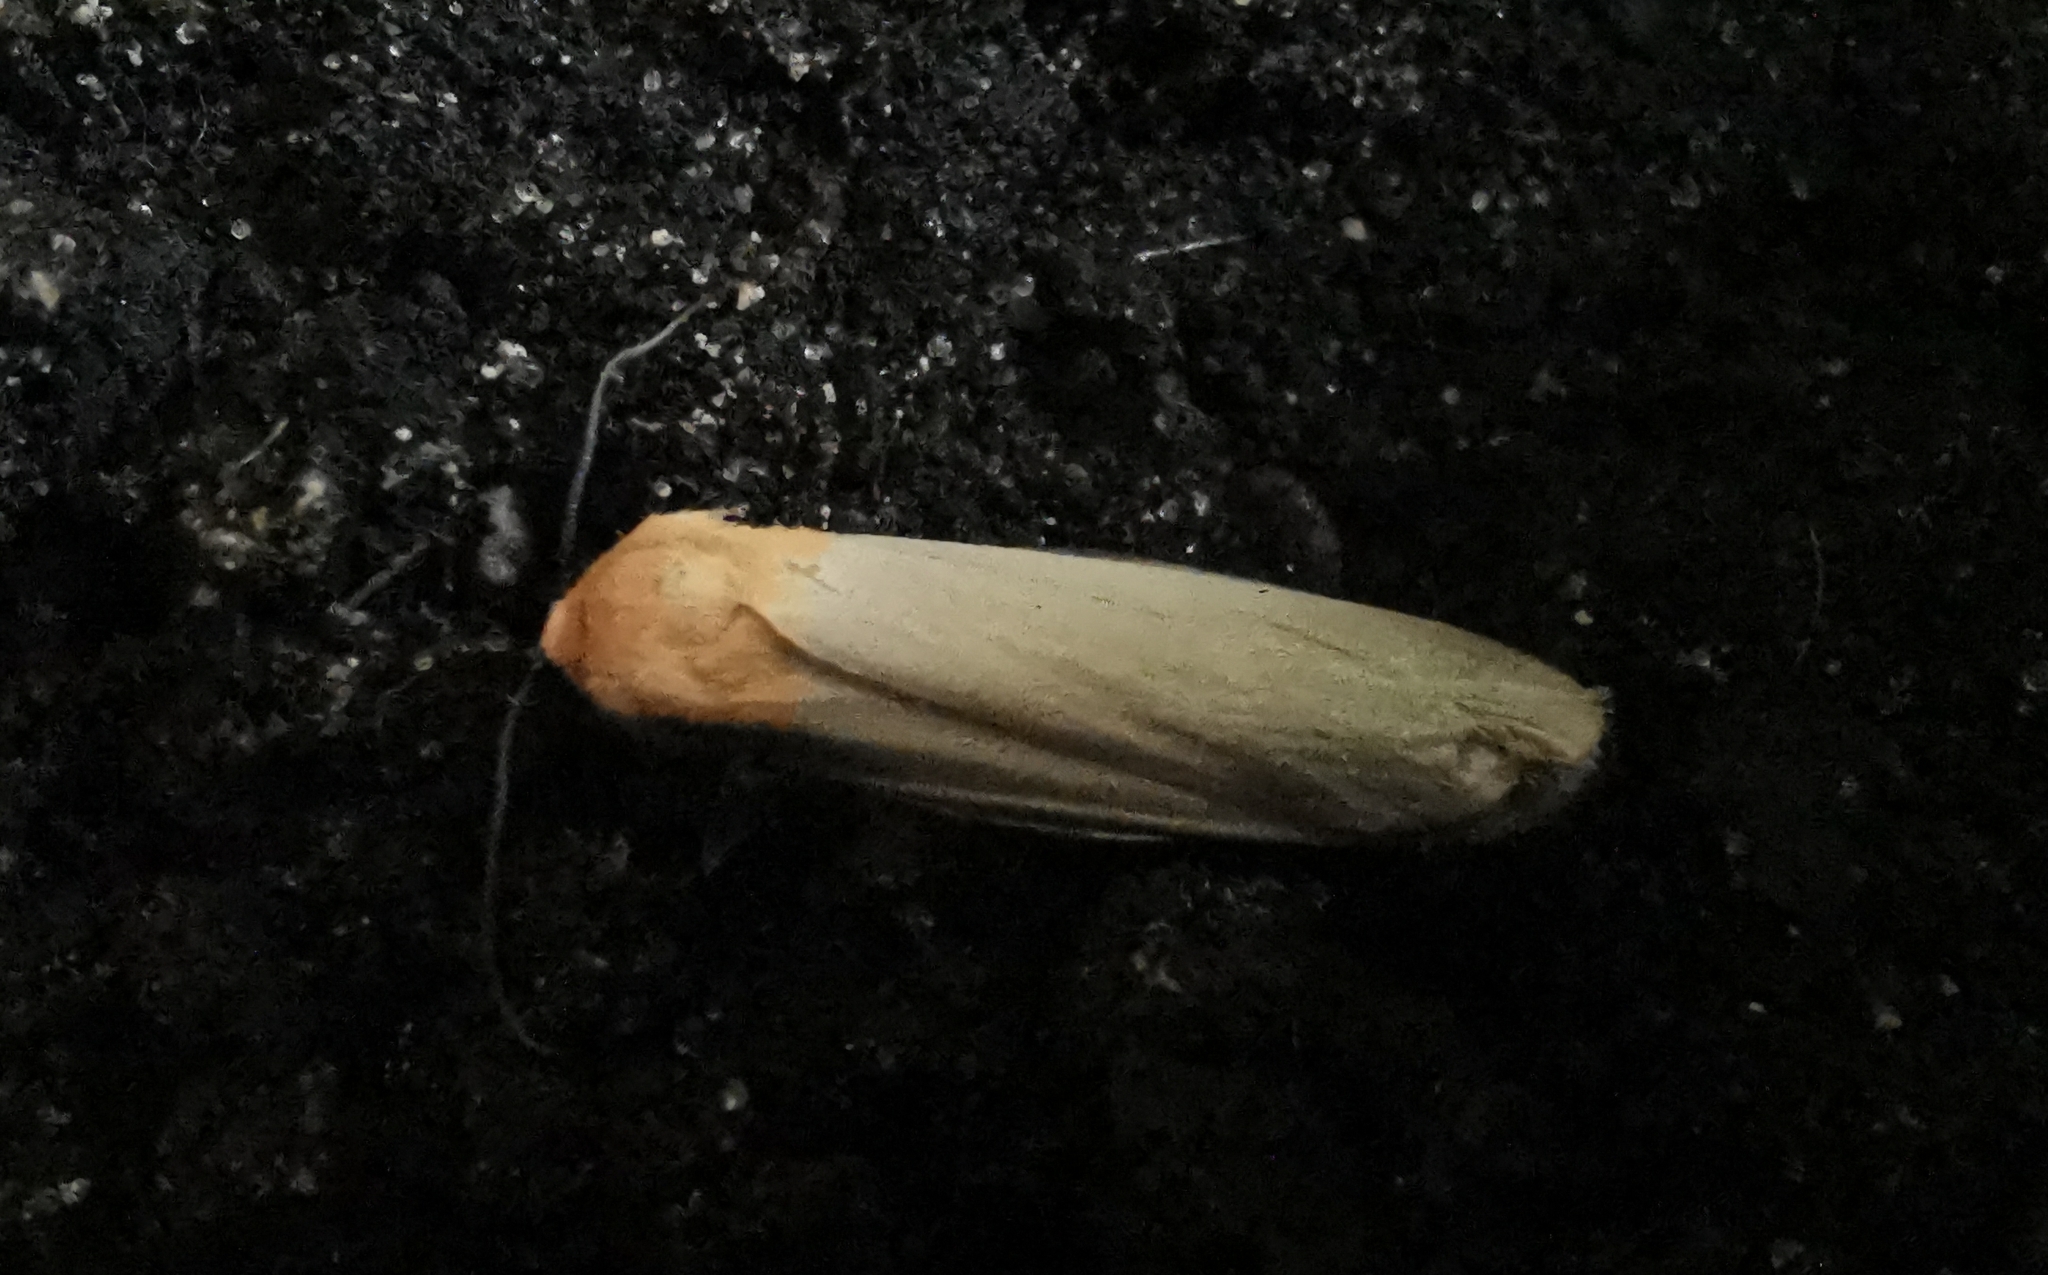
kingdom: Animalia
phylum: Arthropoda
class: Insecta
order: Lepidoptera
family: Erebidae
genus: Lithosia
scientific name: Lithosia quadra
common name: Four-spotted footman
